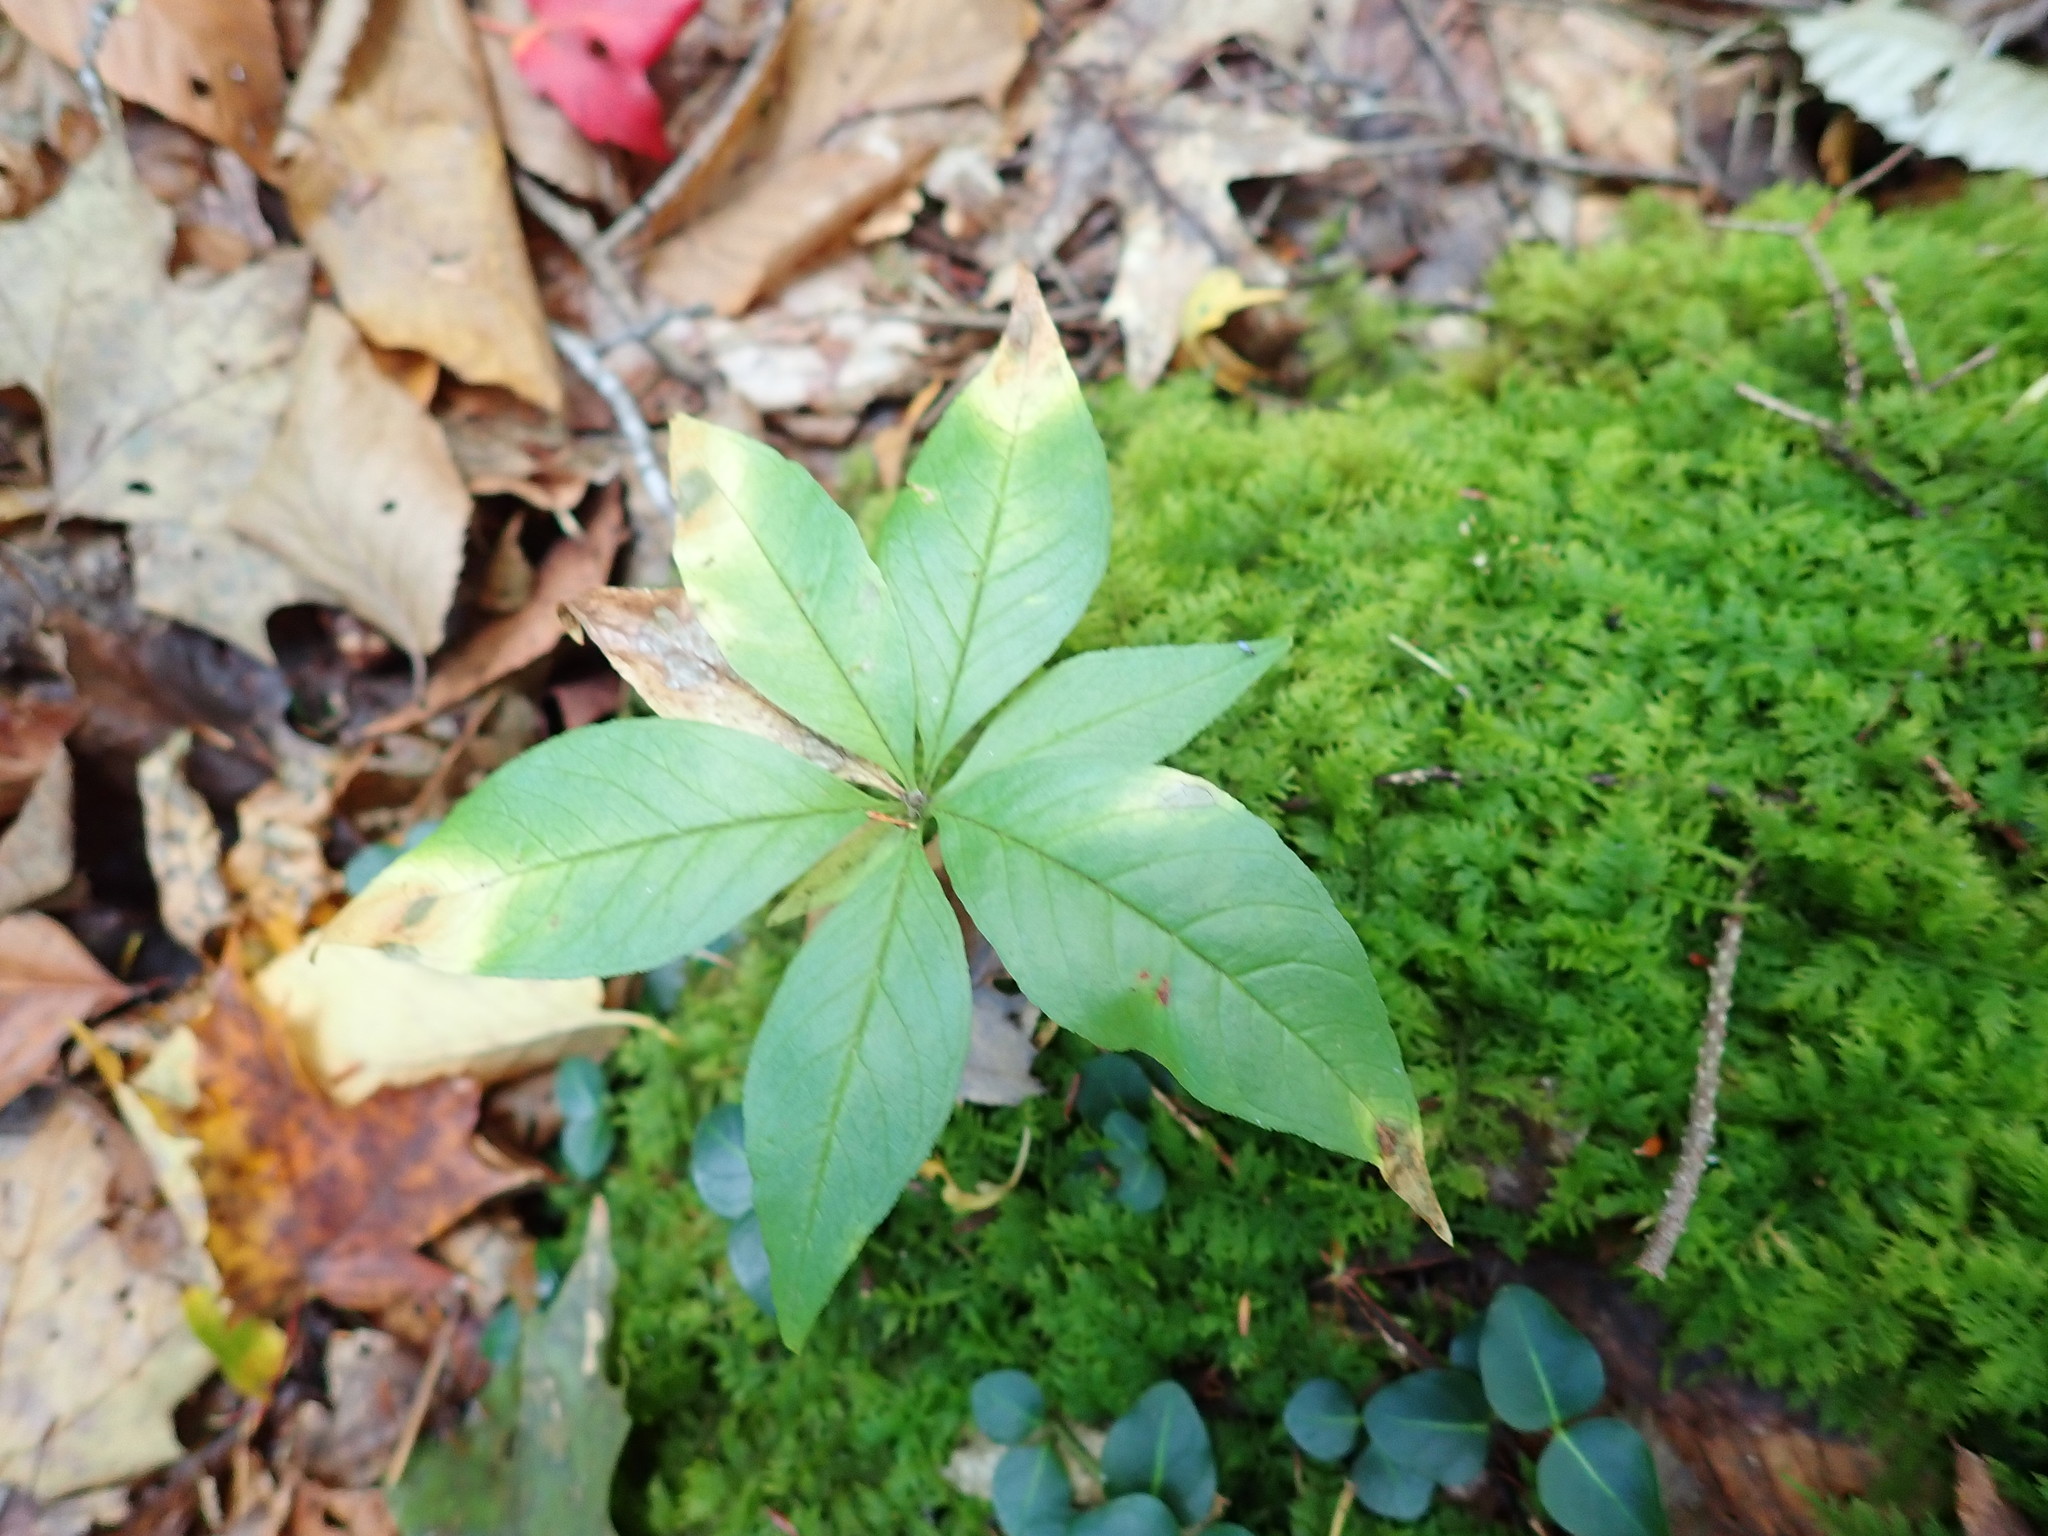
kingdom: Plantae
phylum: Tracheophyta
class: Magnoliopsida
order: Ericales
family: Primulaceae
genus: Lysimachia
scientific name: Lysimachia borealis
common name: American starflower
